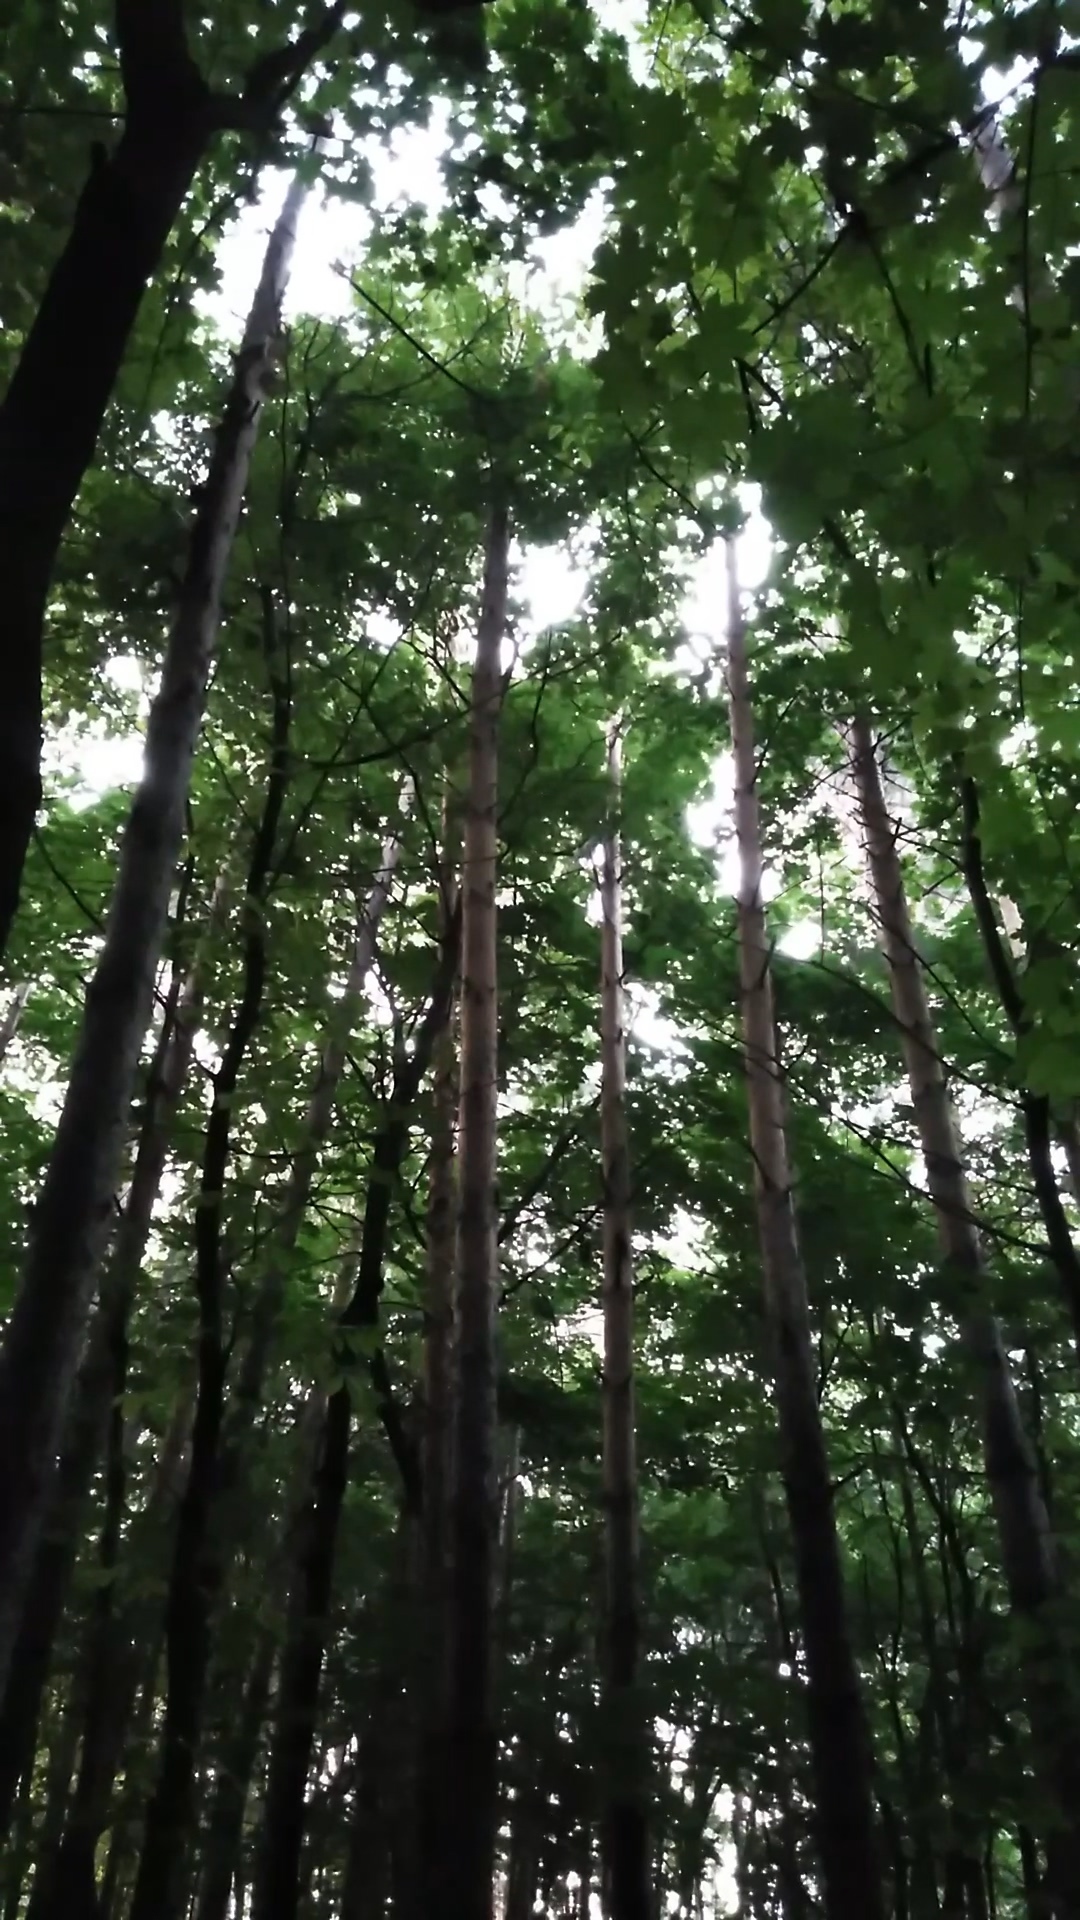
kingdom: Animalia
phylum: Chordata
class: Aves
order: Strigiformes
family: Strigidae
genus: Asio
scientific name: Asio otus
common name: Long-eared owl
